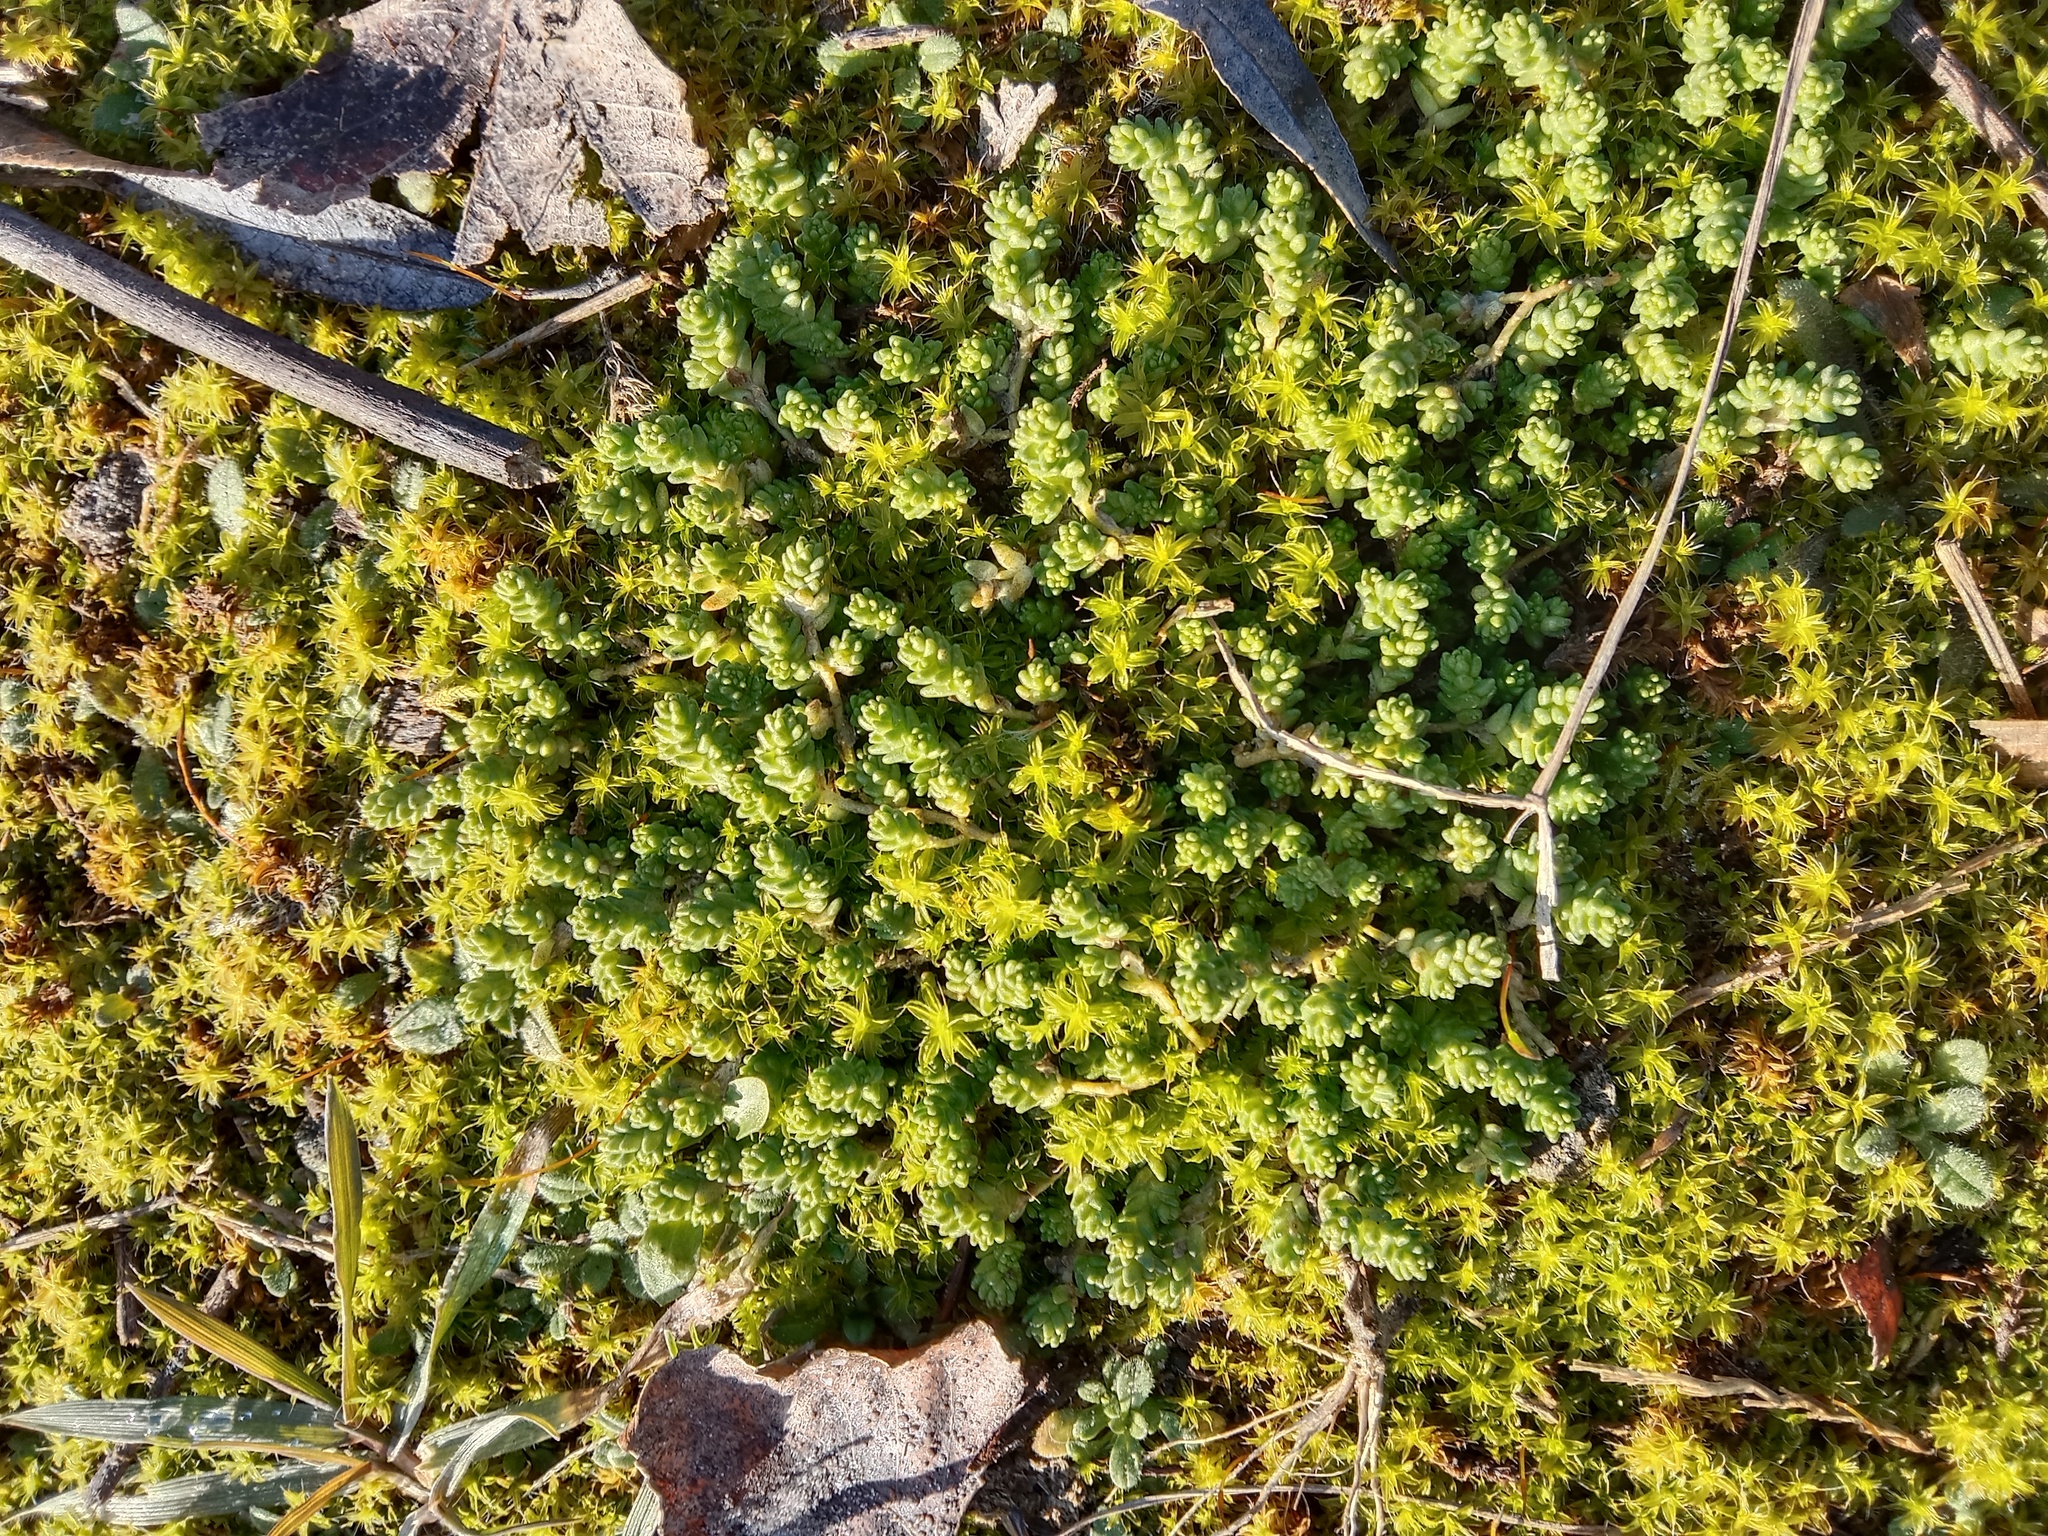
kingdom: Plantae
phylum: Tracheophyta
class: Magnoliopsida
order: Saxifragales
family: Crassulaceae
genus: Sedum
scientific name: Sedum acre
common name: Biting stonecrop
